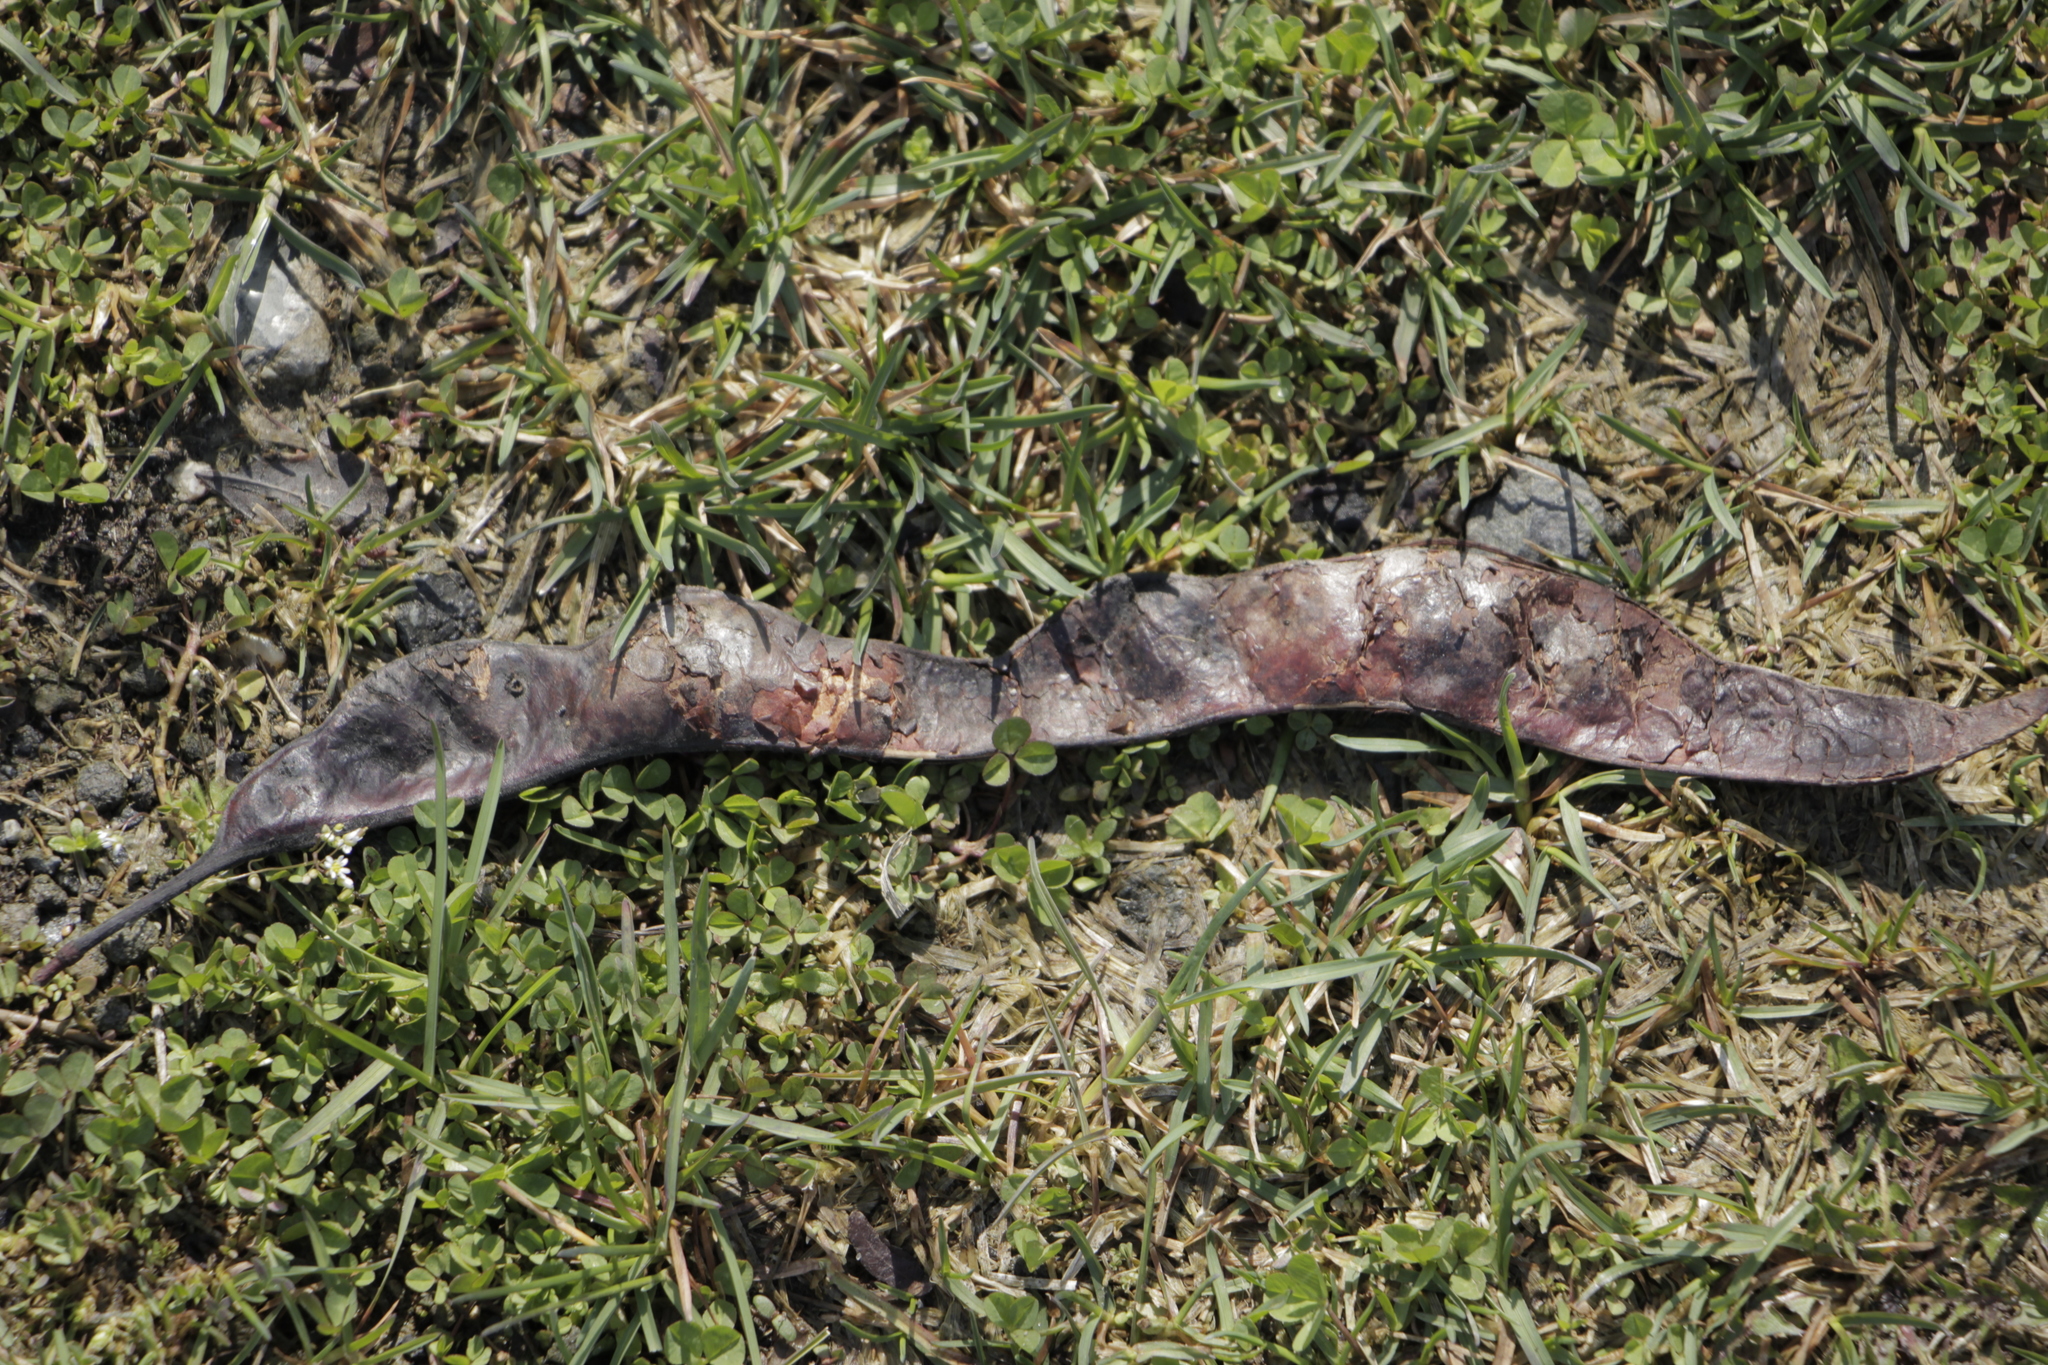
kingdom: Plantae
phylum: Tracheophyta
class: Magnoliopsida
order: Fabales
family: Fabaceae
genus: Gleditsia
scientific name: Gleditsia triacanthos
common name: Common honeylocust
